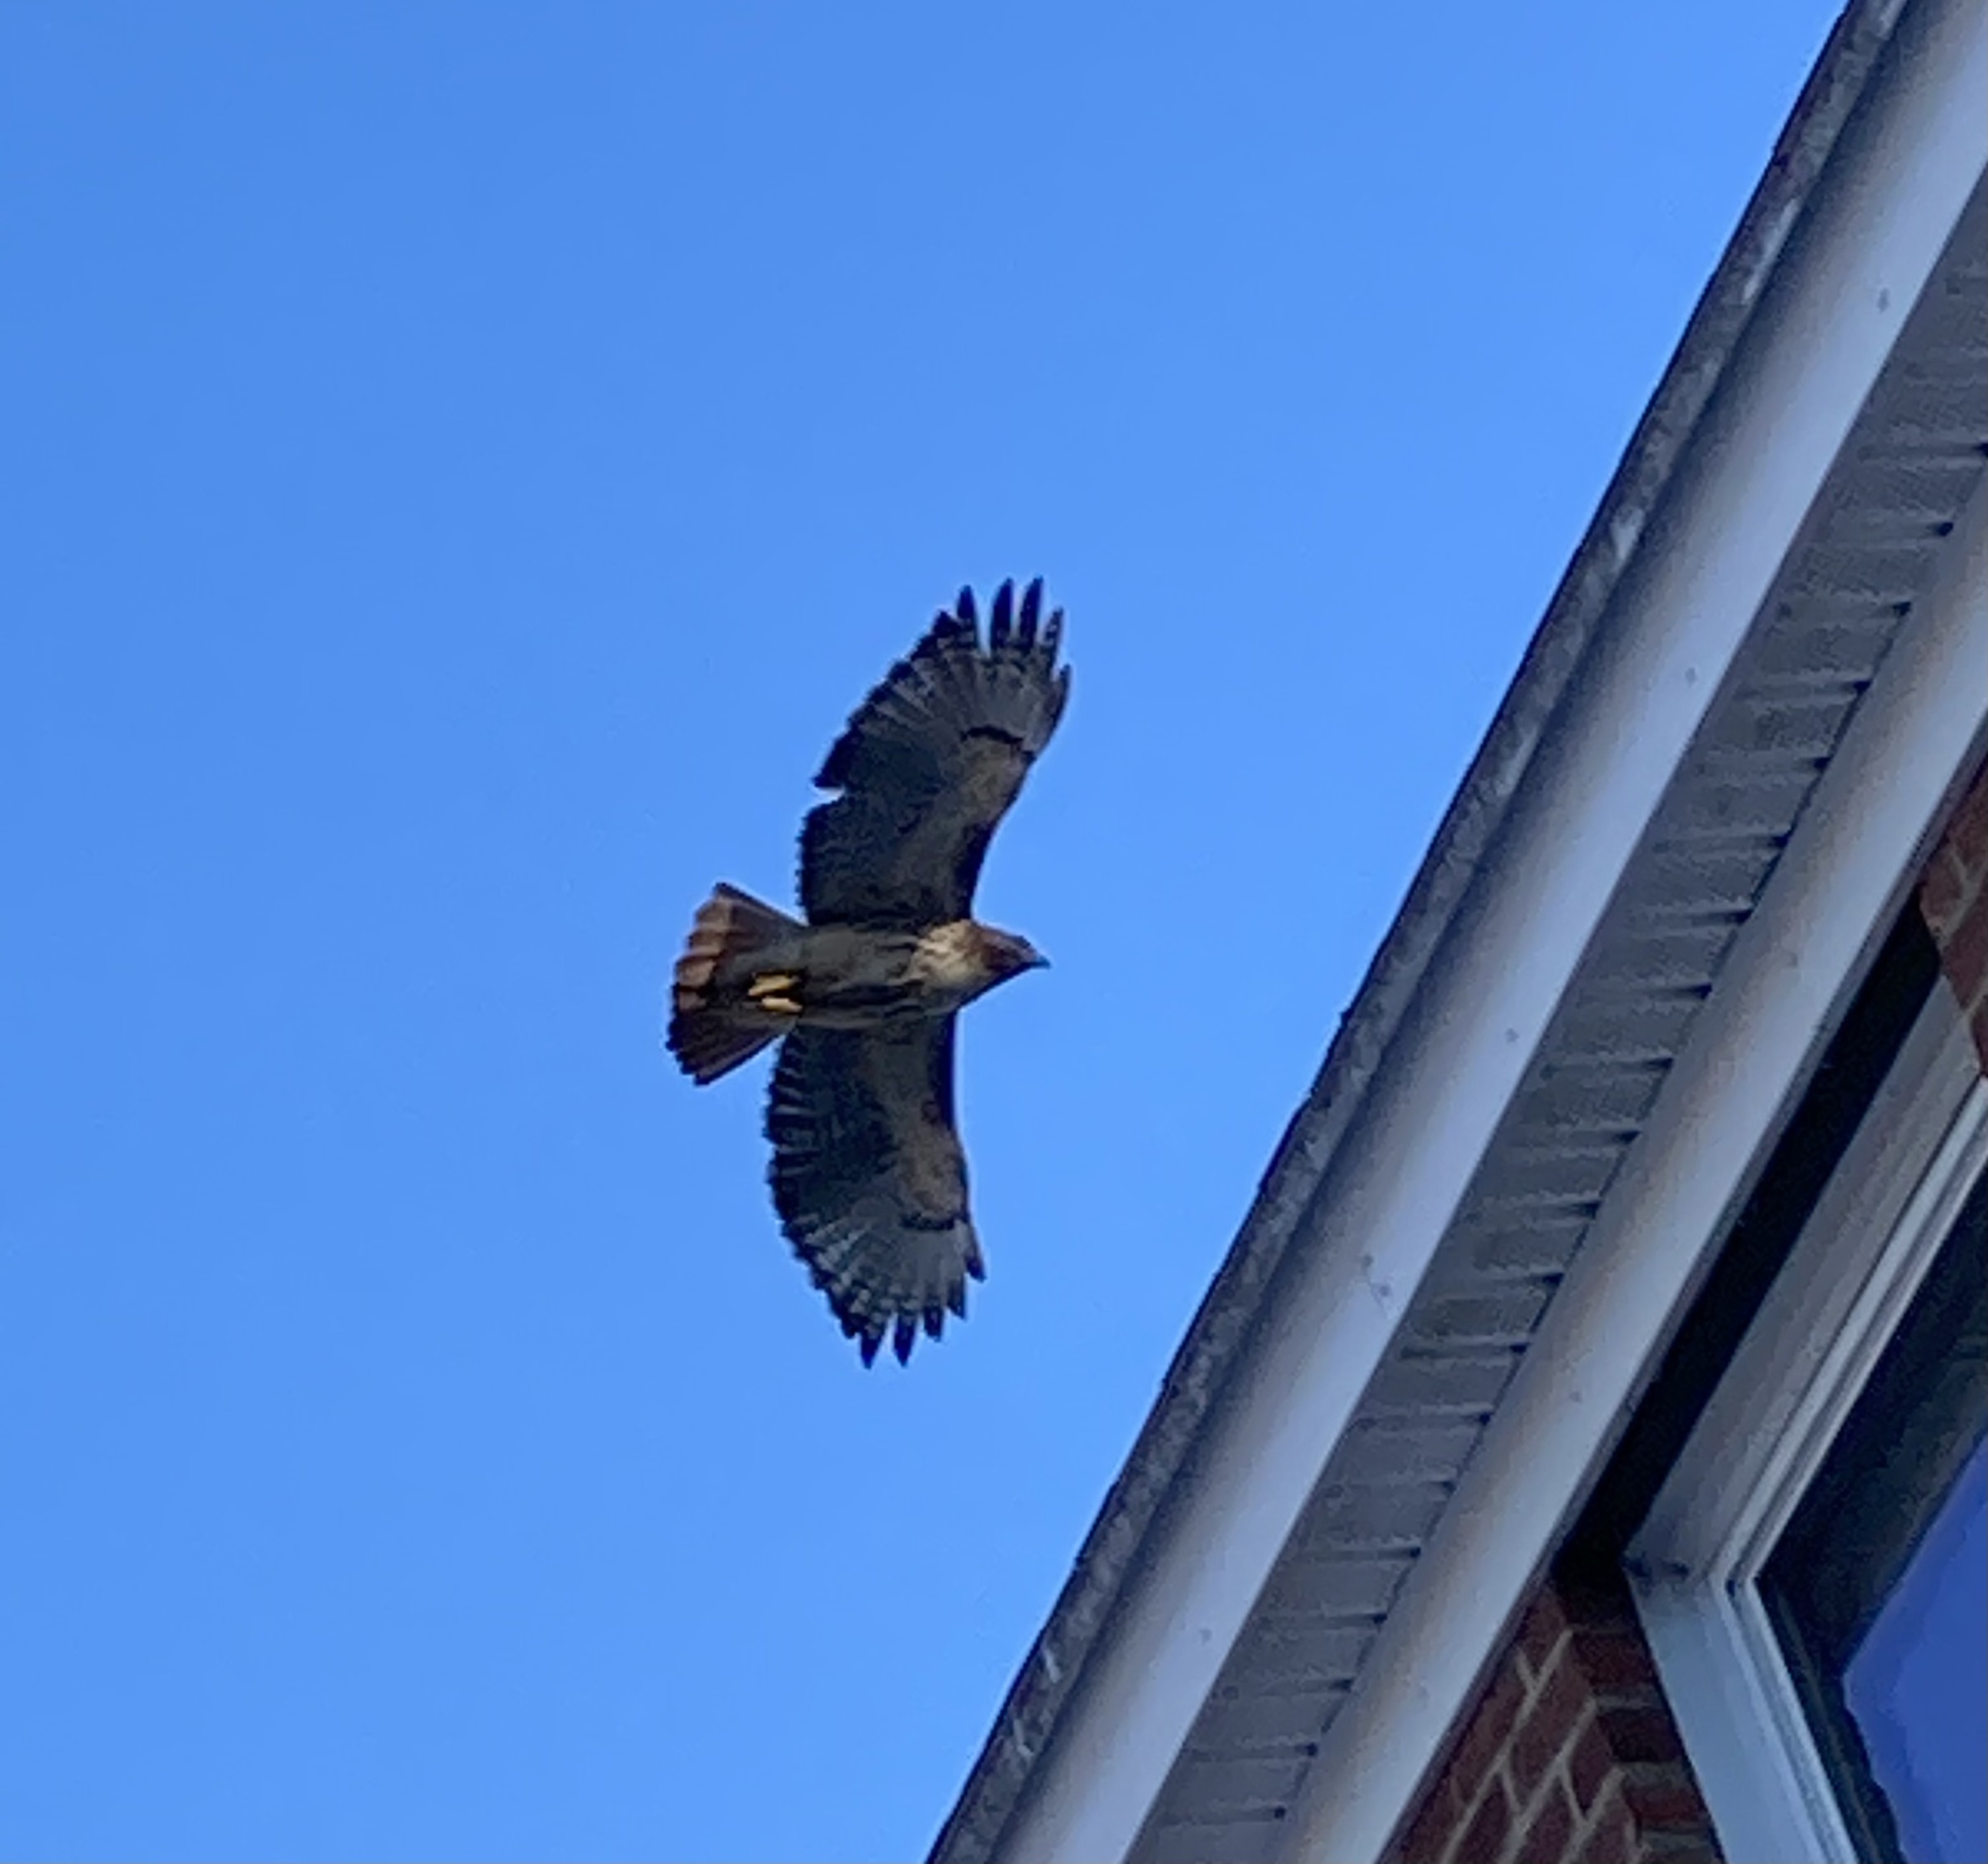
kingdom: Animalia
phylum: Chordata
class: Aves
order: Accipitriformes
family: Accipitridae
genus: Buteo
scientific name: Buteo jamaicensis
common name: Red-tailed hawk
